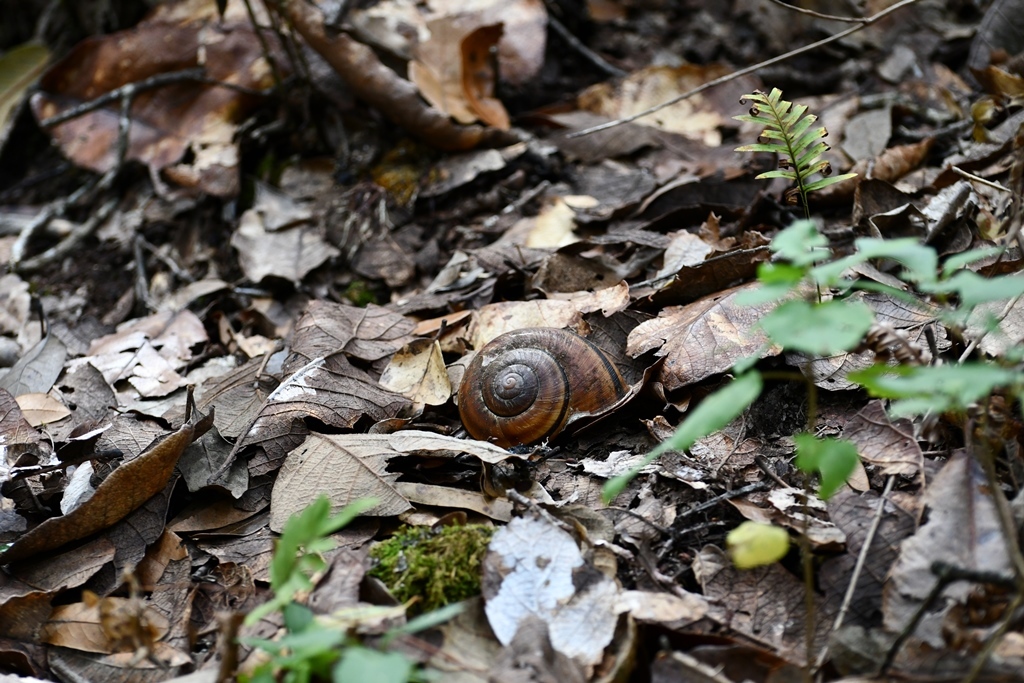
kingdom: Animalia
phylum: Mollusca
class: Gastropoda
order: Stylommatophora
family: Xanthonychidae
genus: Lysinoe
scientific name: Lysinoe ghiesbreghti
